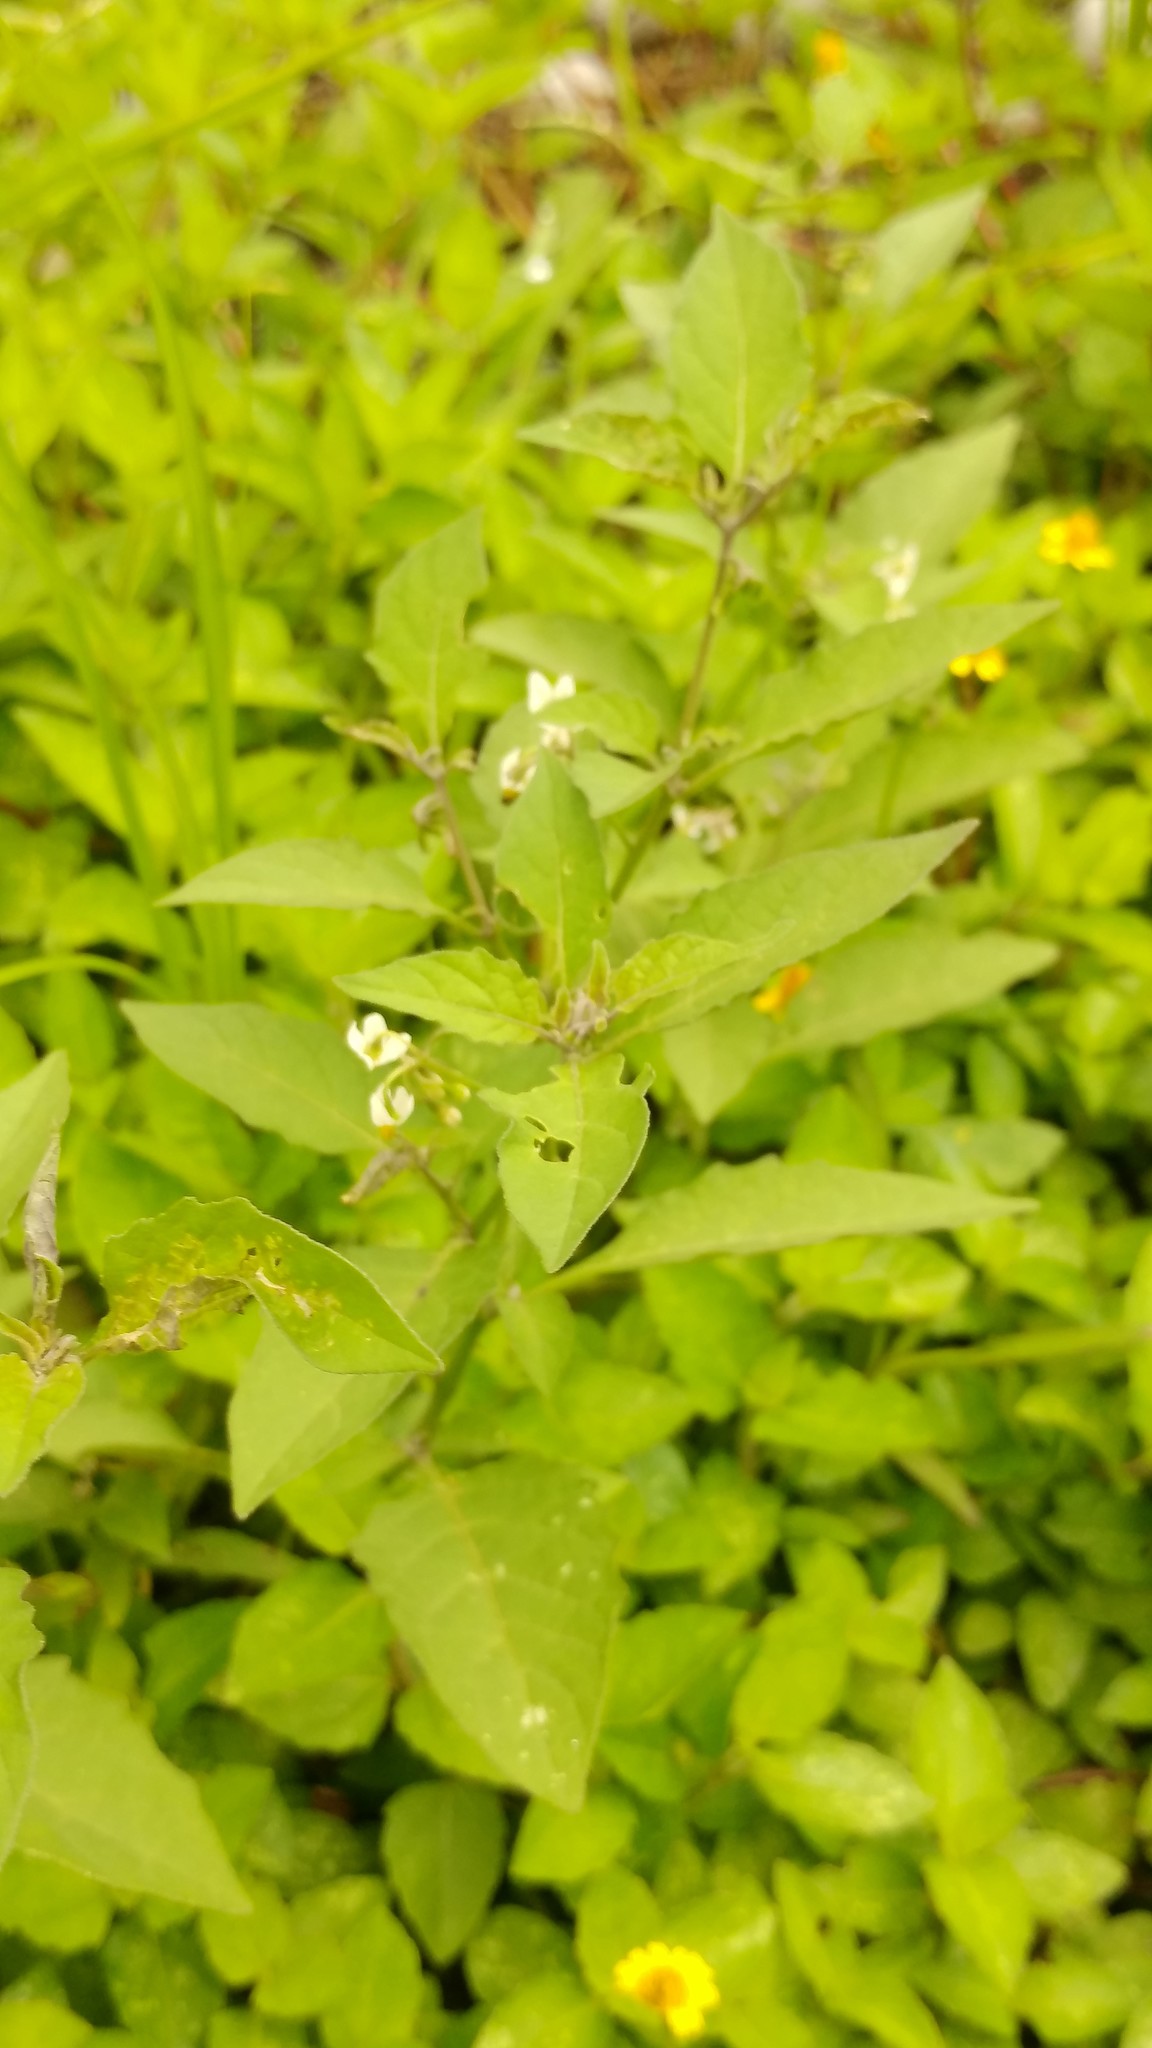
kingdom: Plantae
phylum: Tracheophyta
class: Magnoliopsida
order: Solanales
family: Solanaceae
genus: Solanum
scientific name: Solanum americanum
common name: American black nightshade
